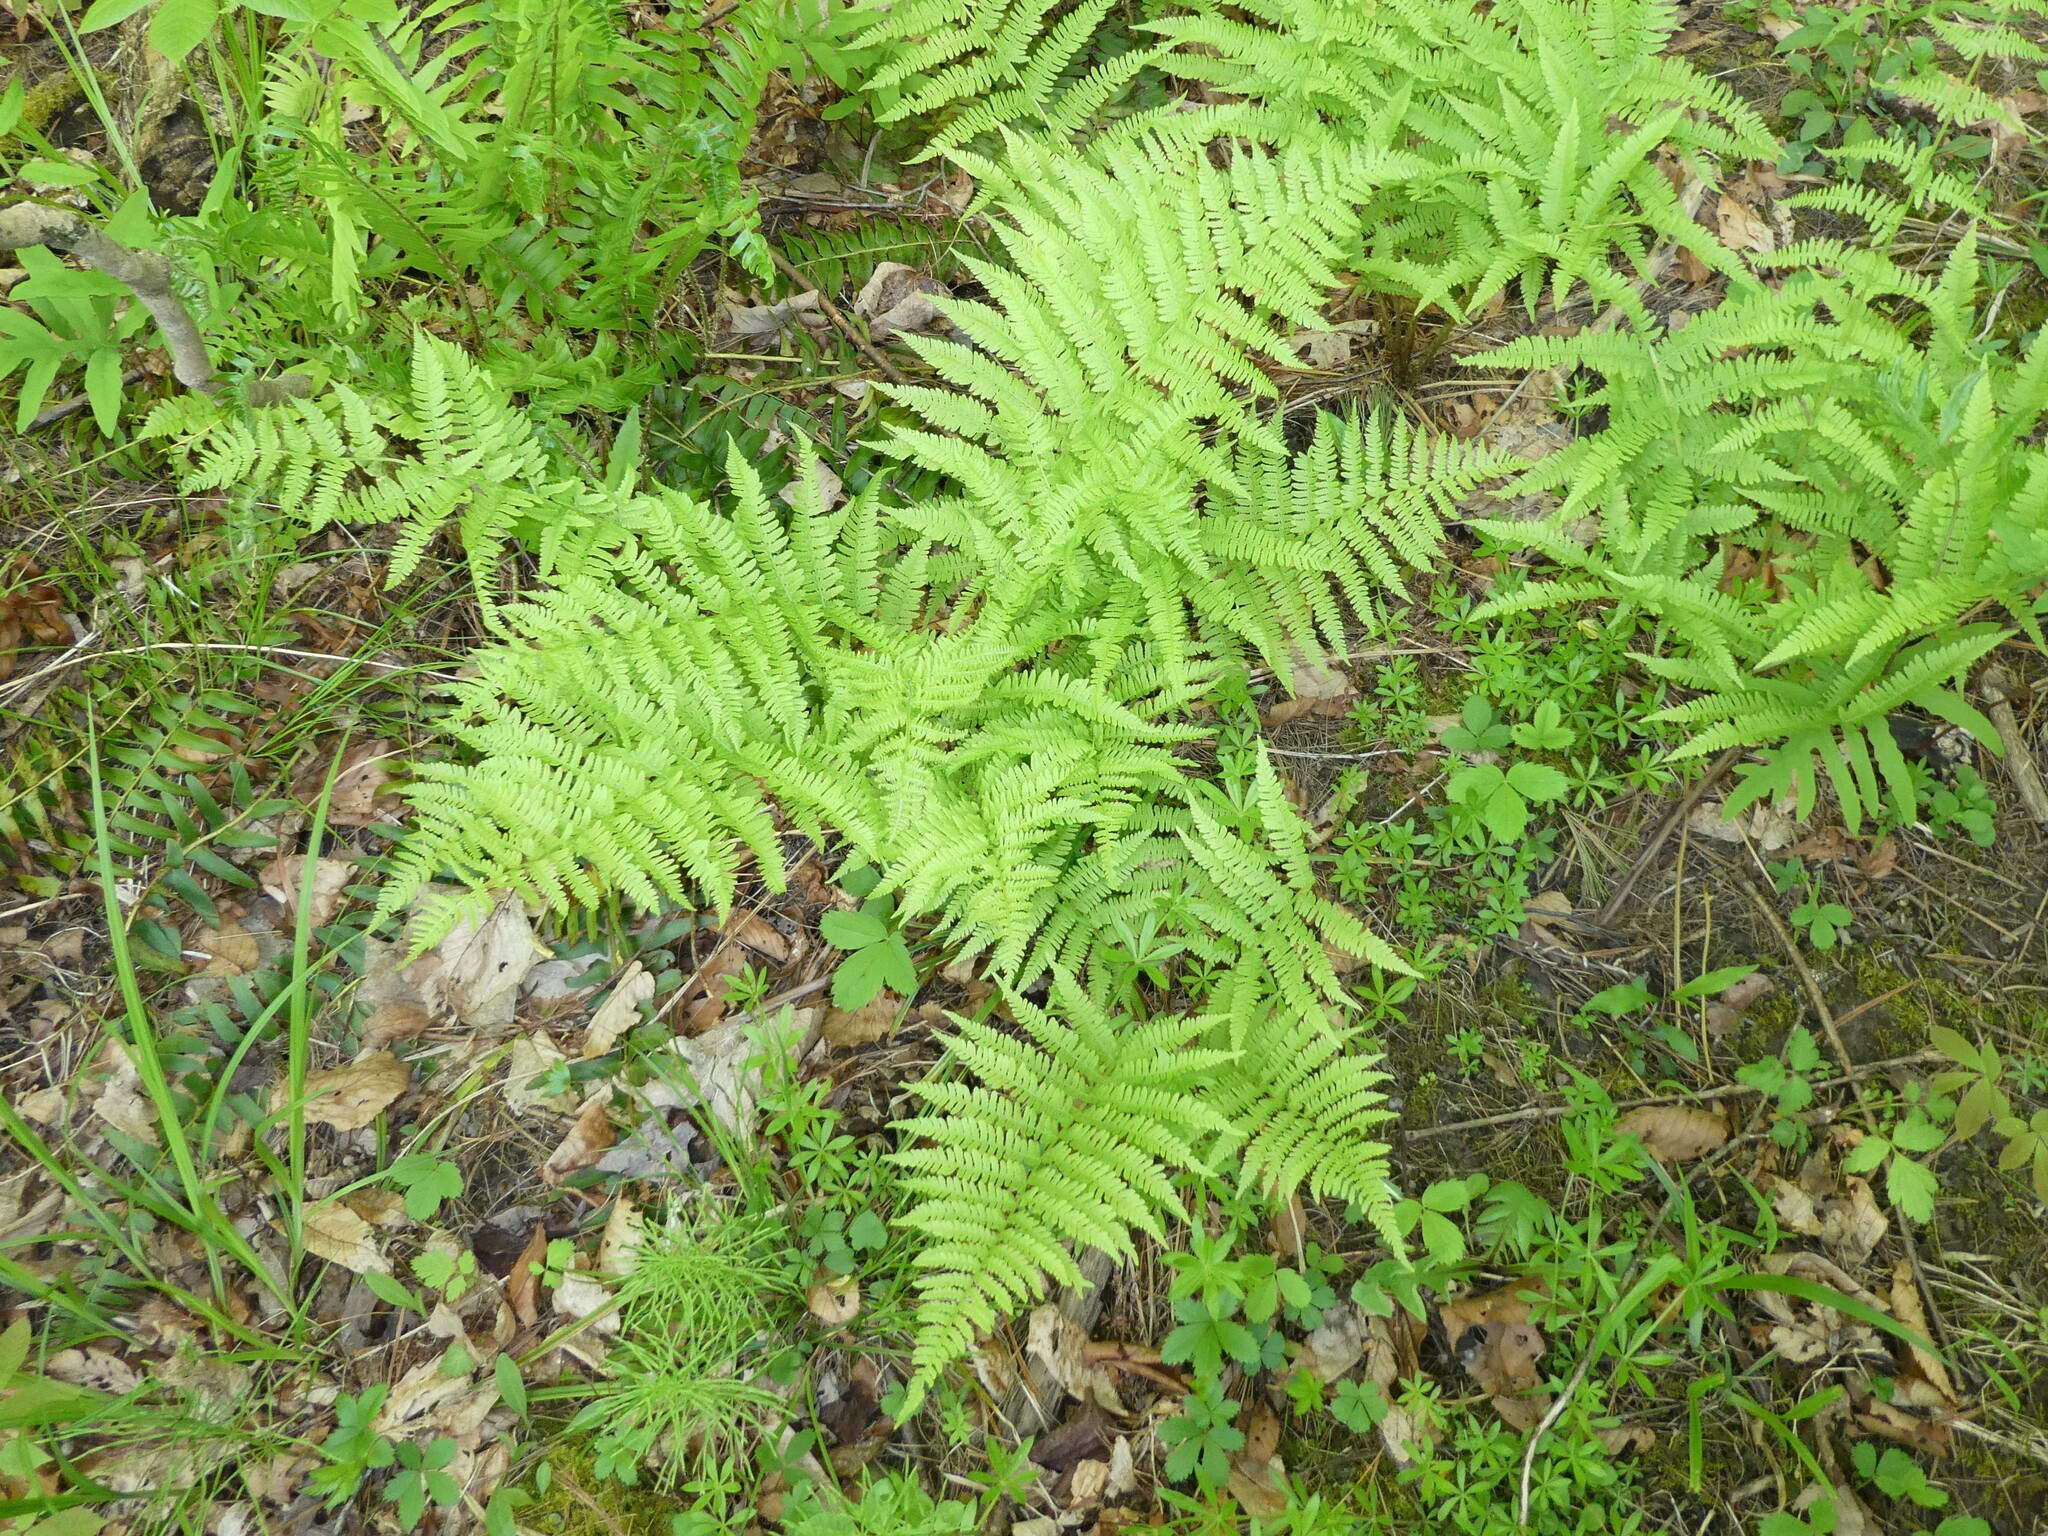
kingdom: Plantae
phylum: Tracheophyta
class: Polypodiopsida
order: Polypodiales
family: Athyriaceae
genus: Athyrium
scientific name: Athyrium angustum
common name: Northern lady fern
